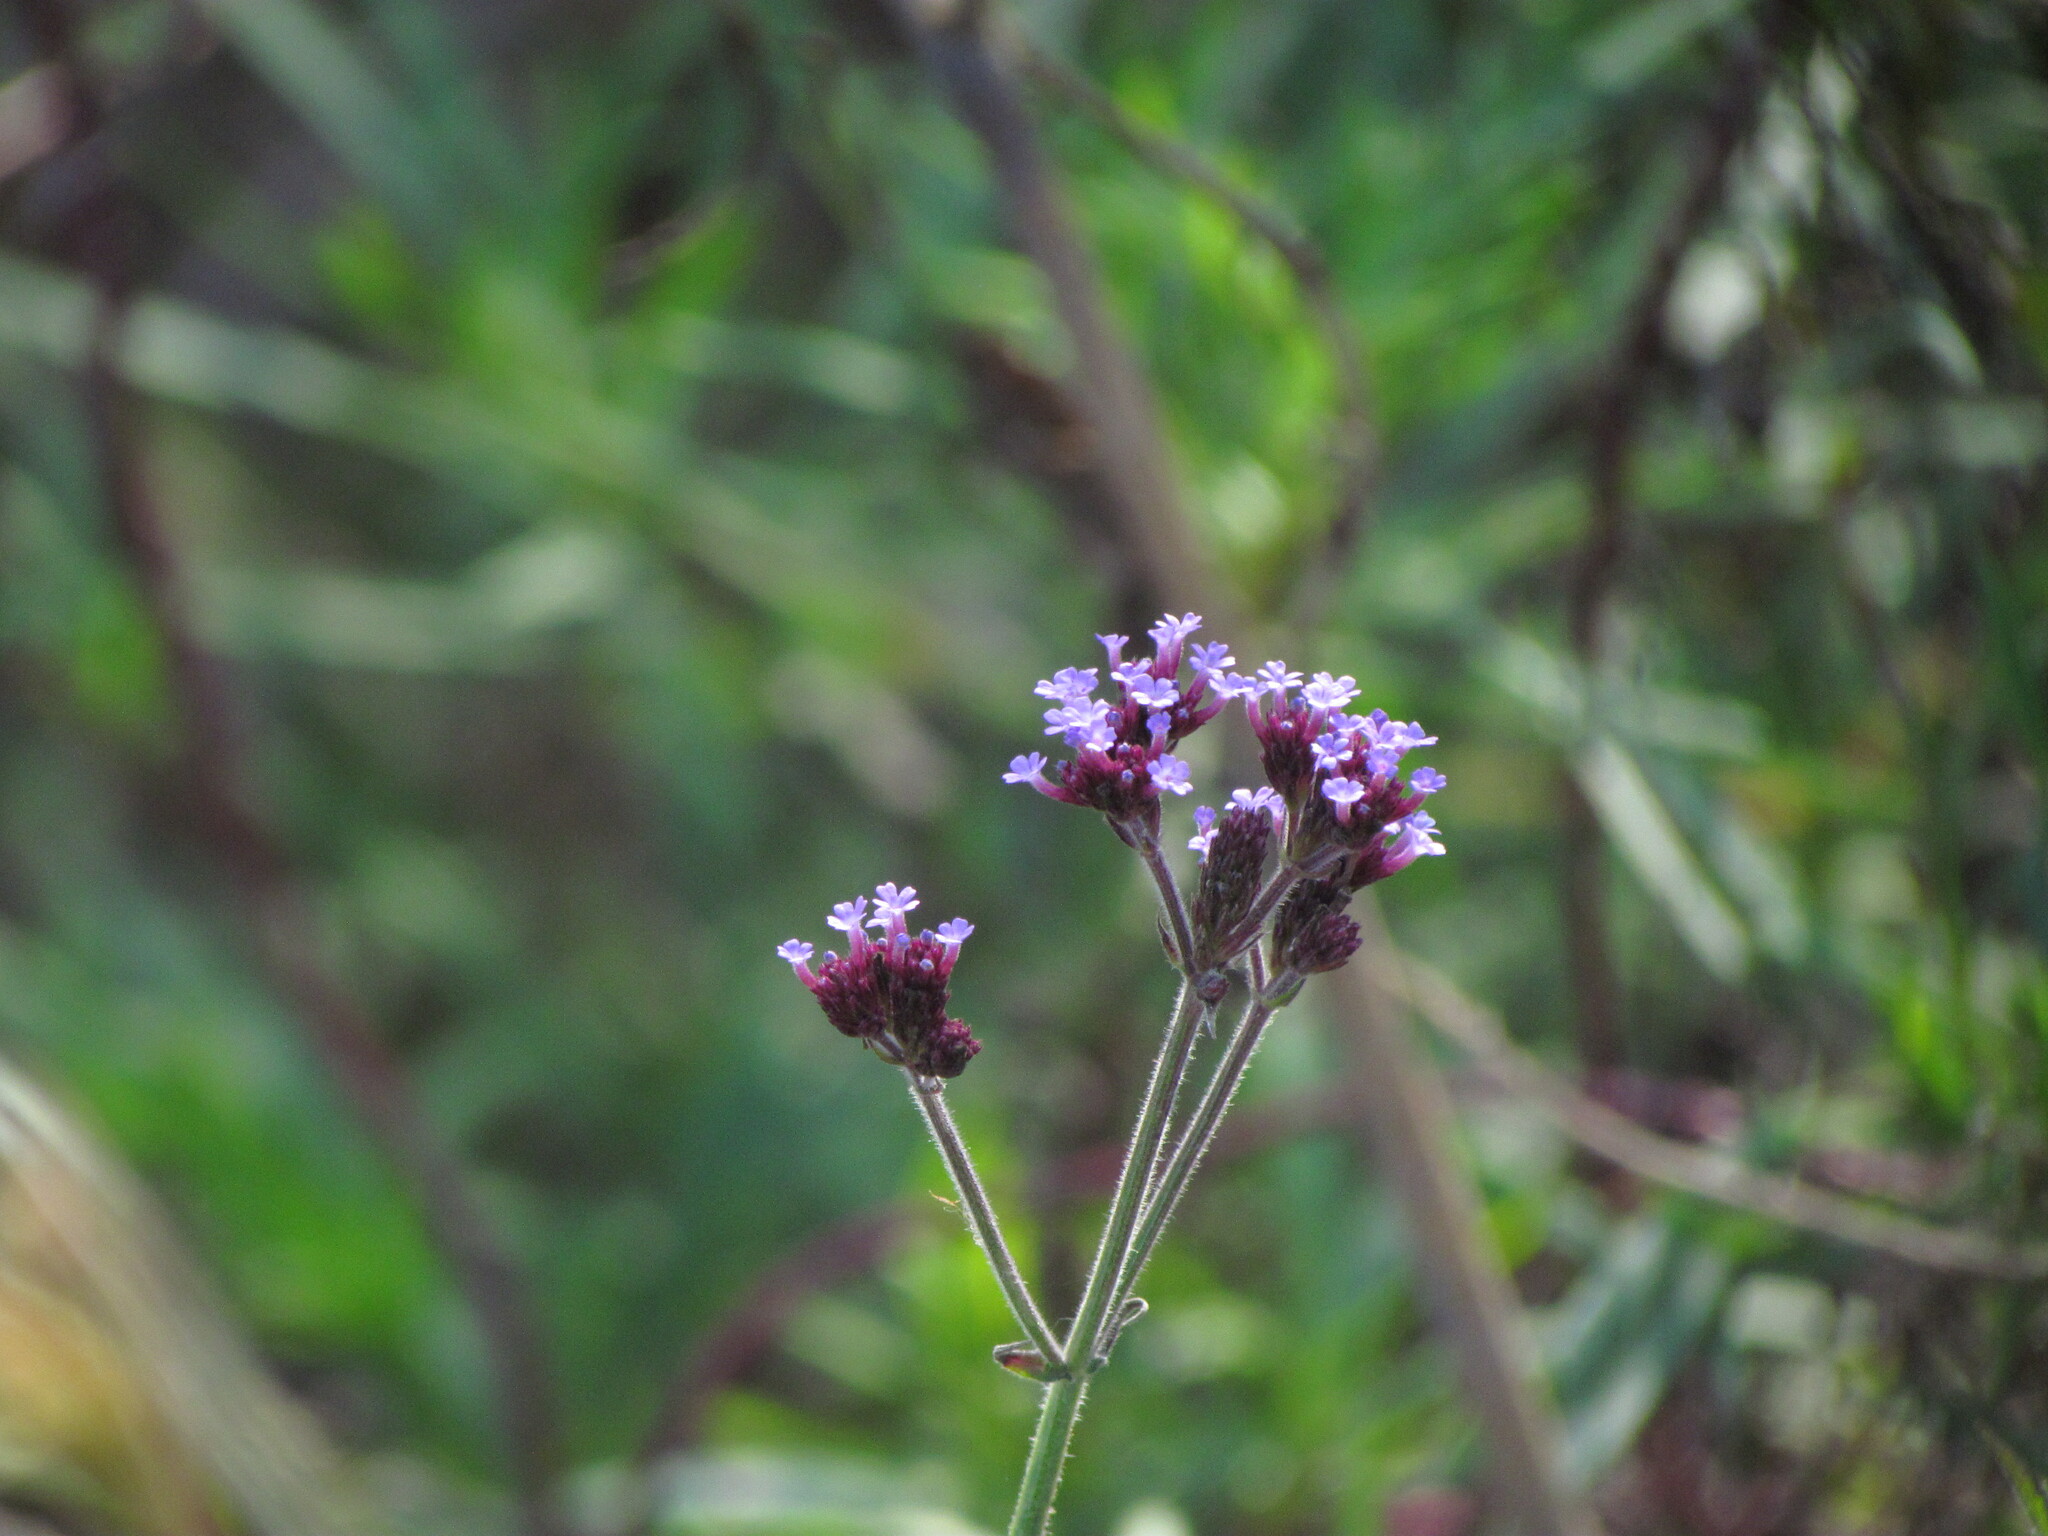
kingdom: Plantae
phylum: Tracheophyta
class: Magnoliopsida
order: Lamiales
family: Verbenaceae
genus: Verbena
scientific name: Verbena bonariensis
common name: Purpletop vervain
